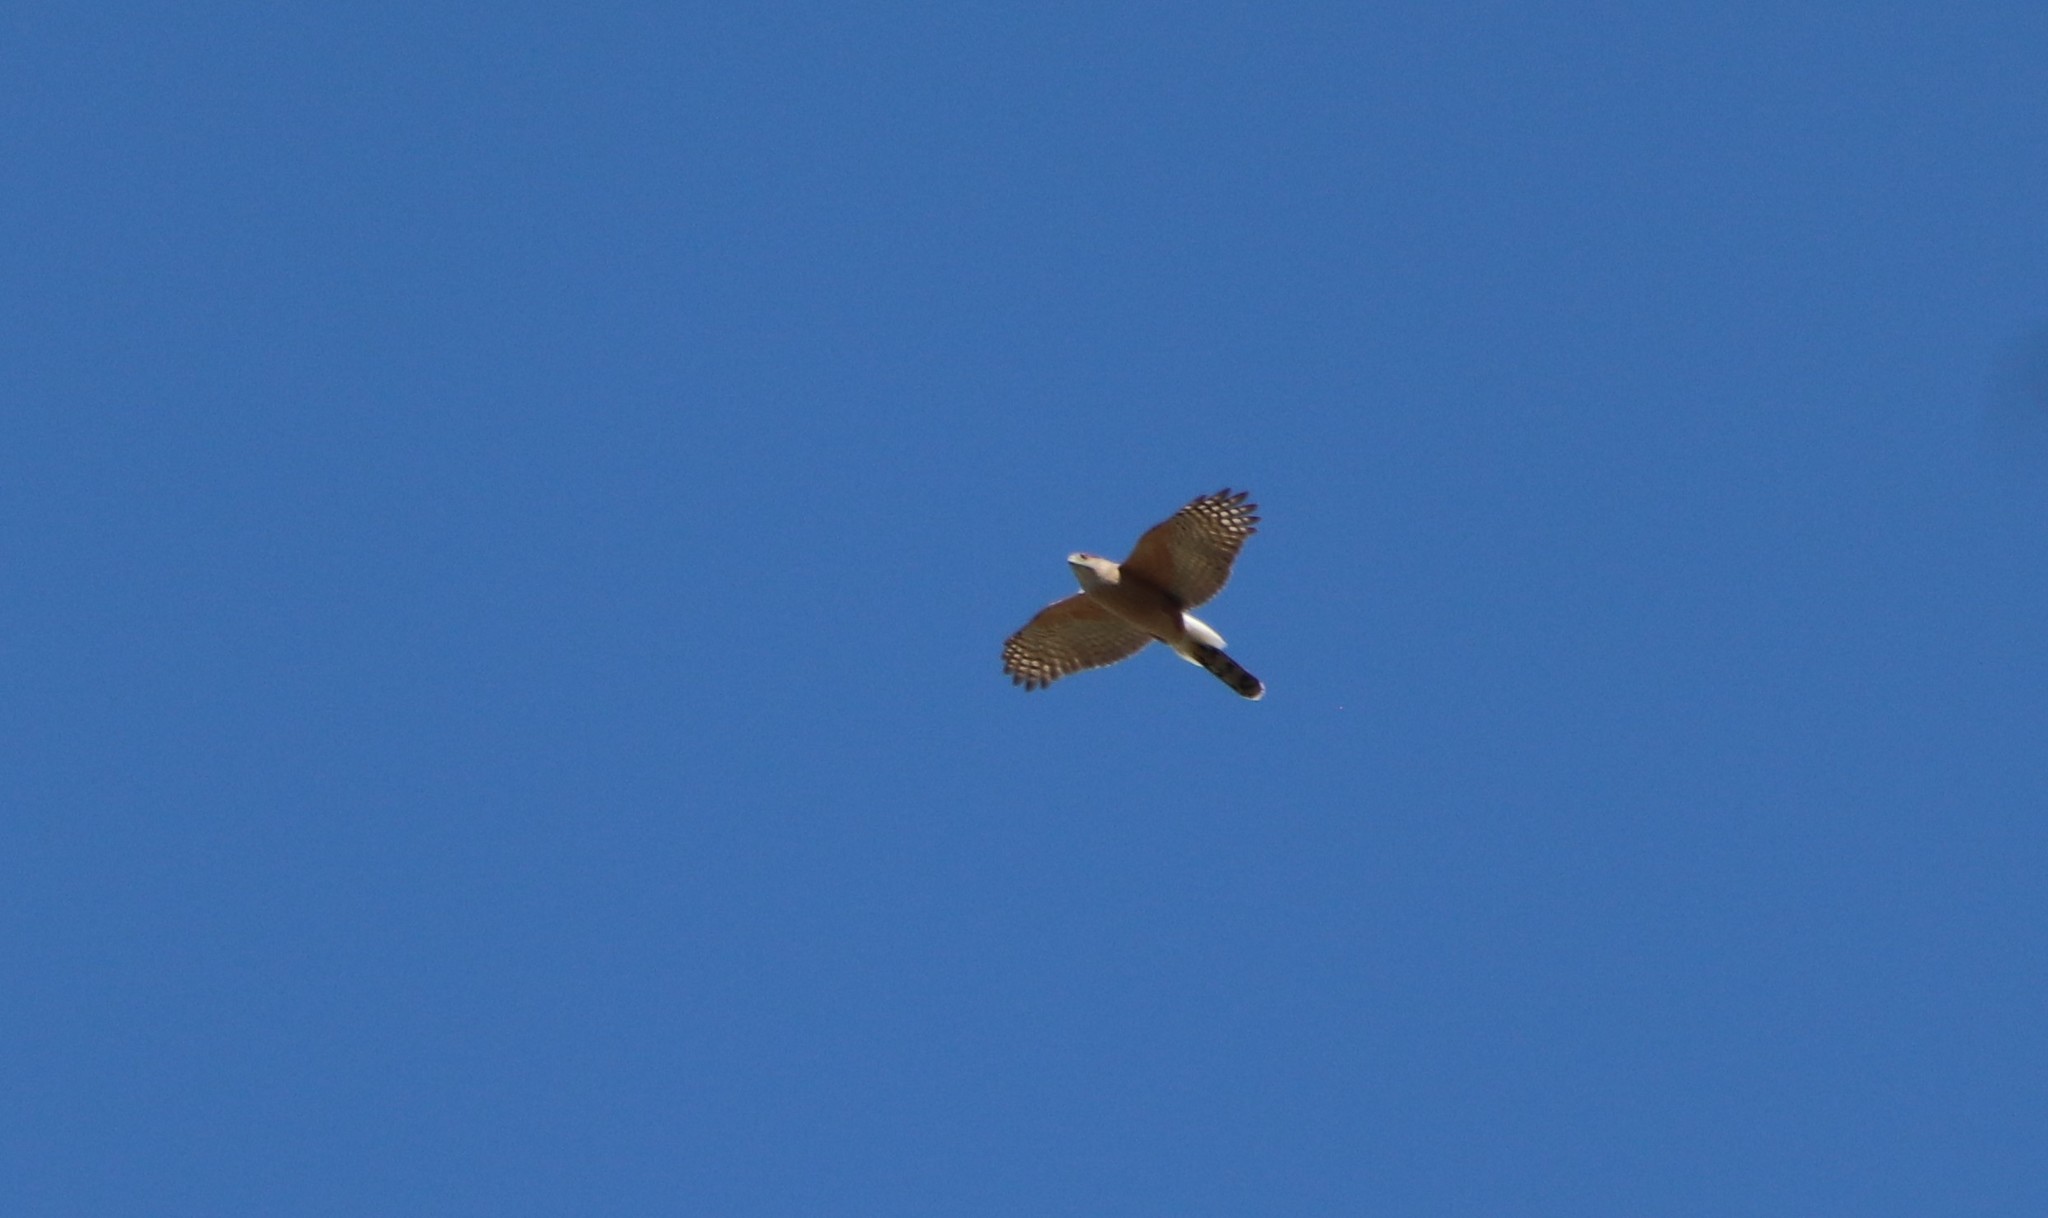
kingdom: Animalia
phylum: Chordata
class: Aves
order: Accipitriformes
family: Accipitridae
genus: Accipiter
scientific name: Accipiter cooperii
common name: Cooper's hawk
